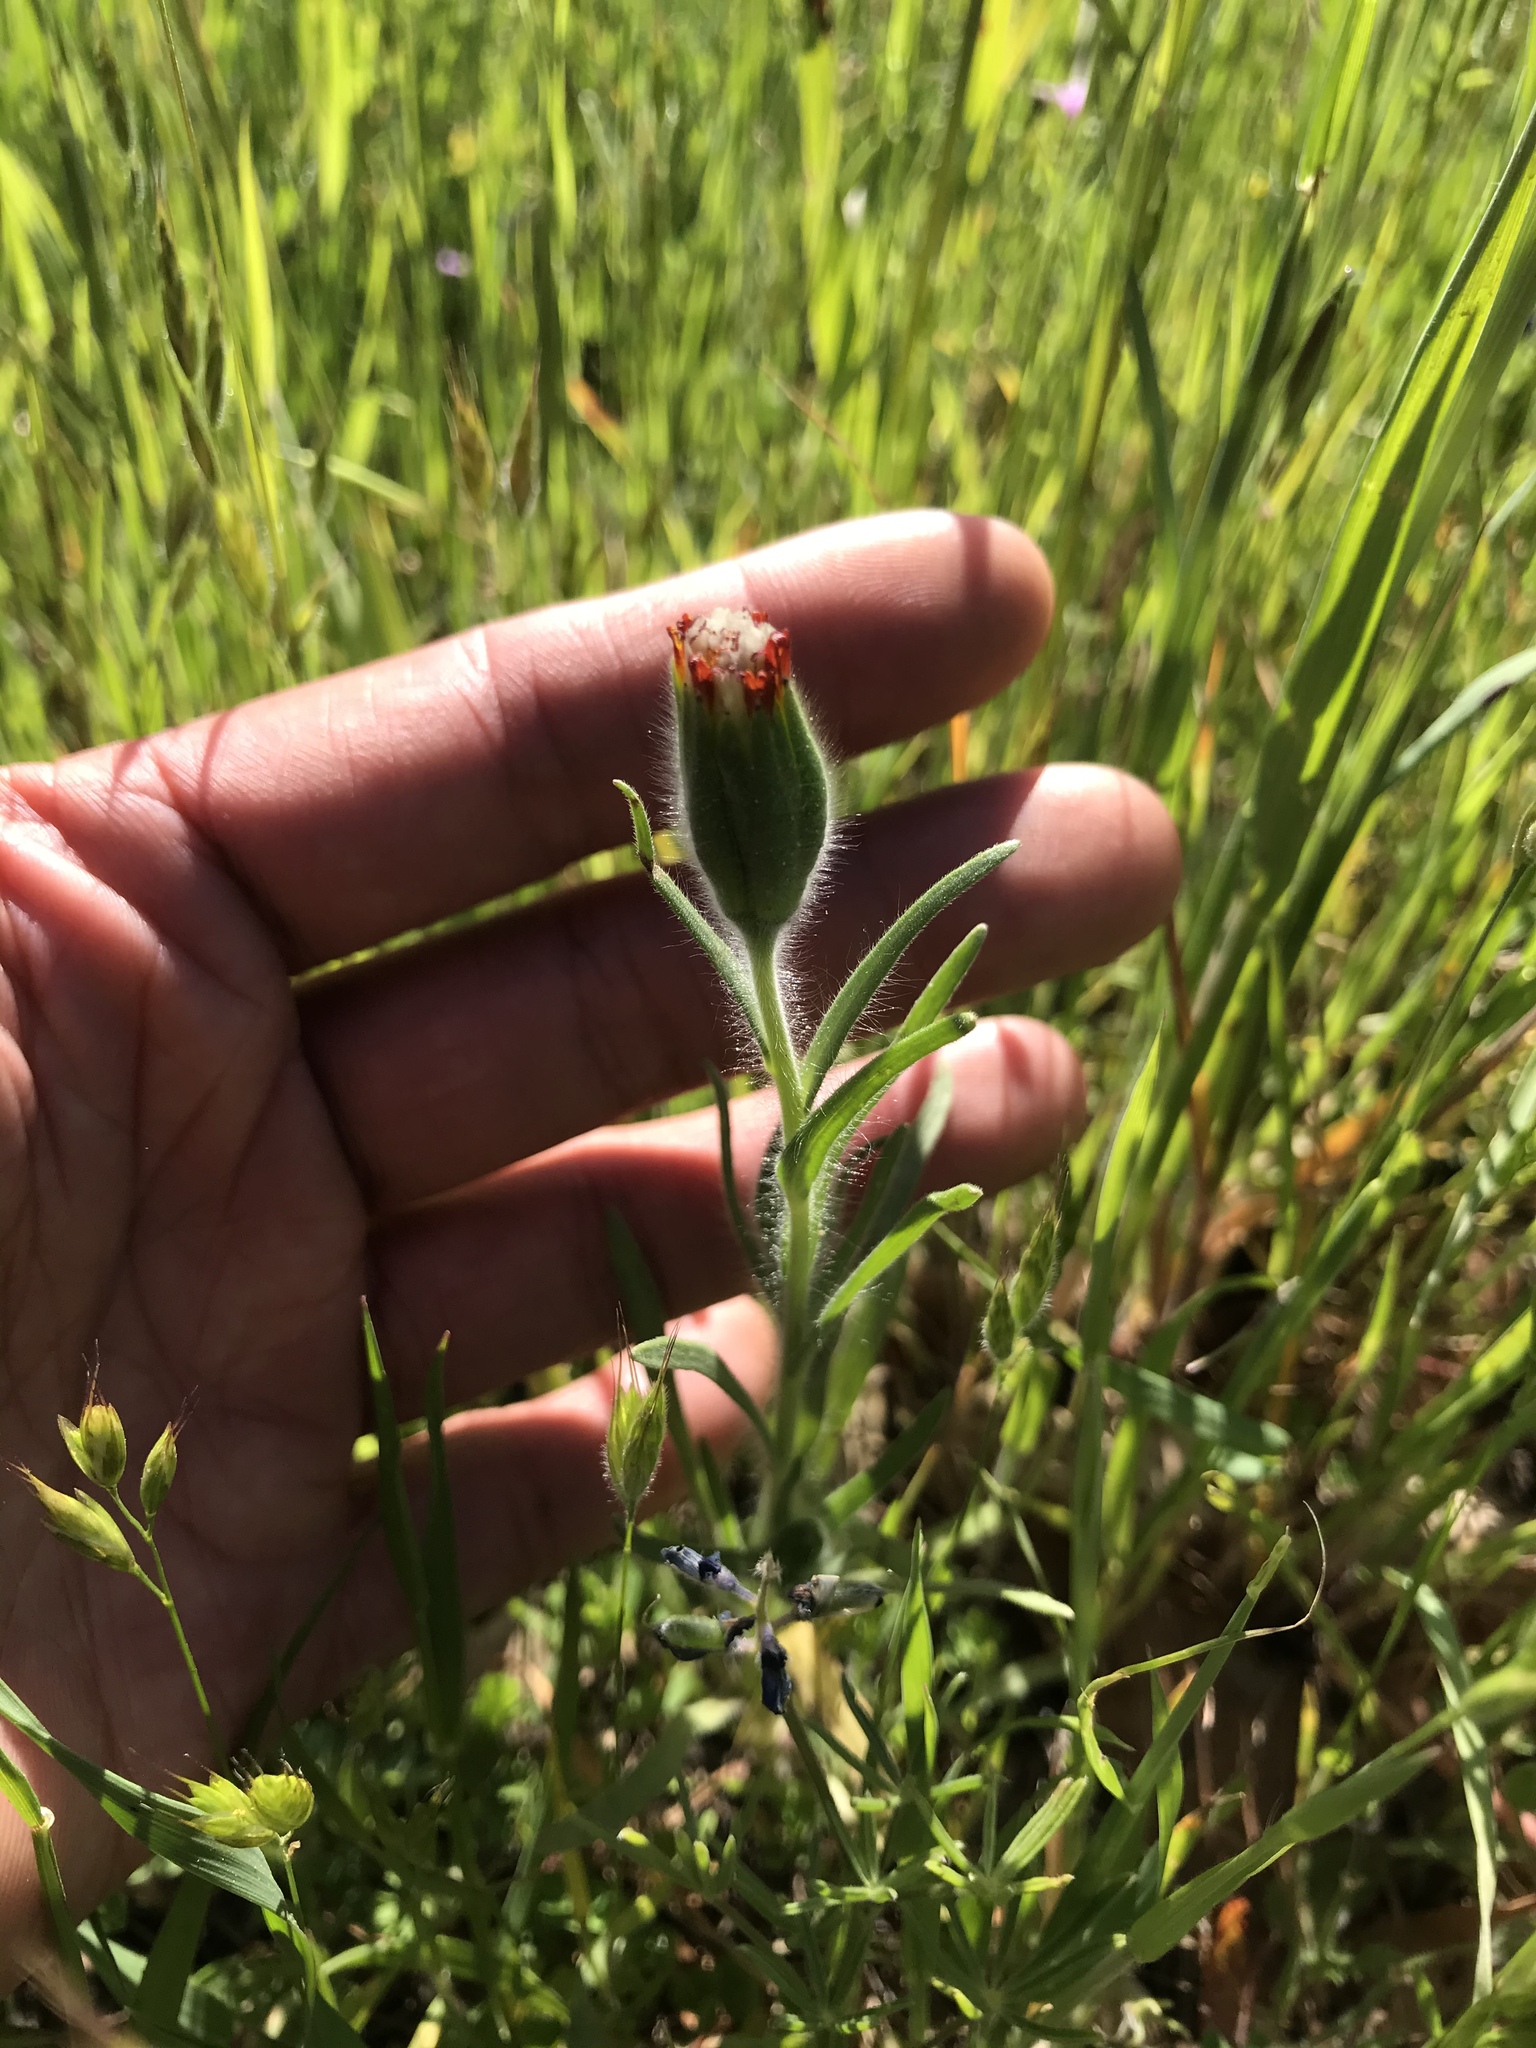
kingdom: Plantae
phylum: Tracheophyta
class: Magnoliopsida
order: Asterales
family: Asteraceae
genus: Achyrachaena
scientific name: Achyrachaena mollis
